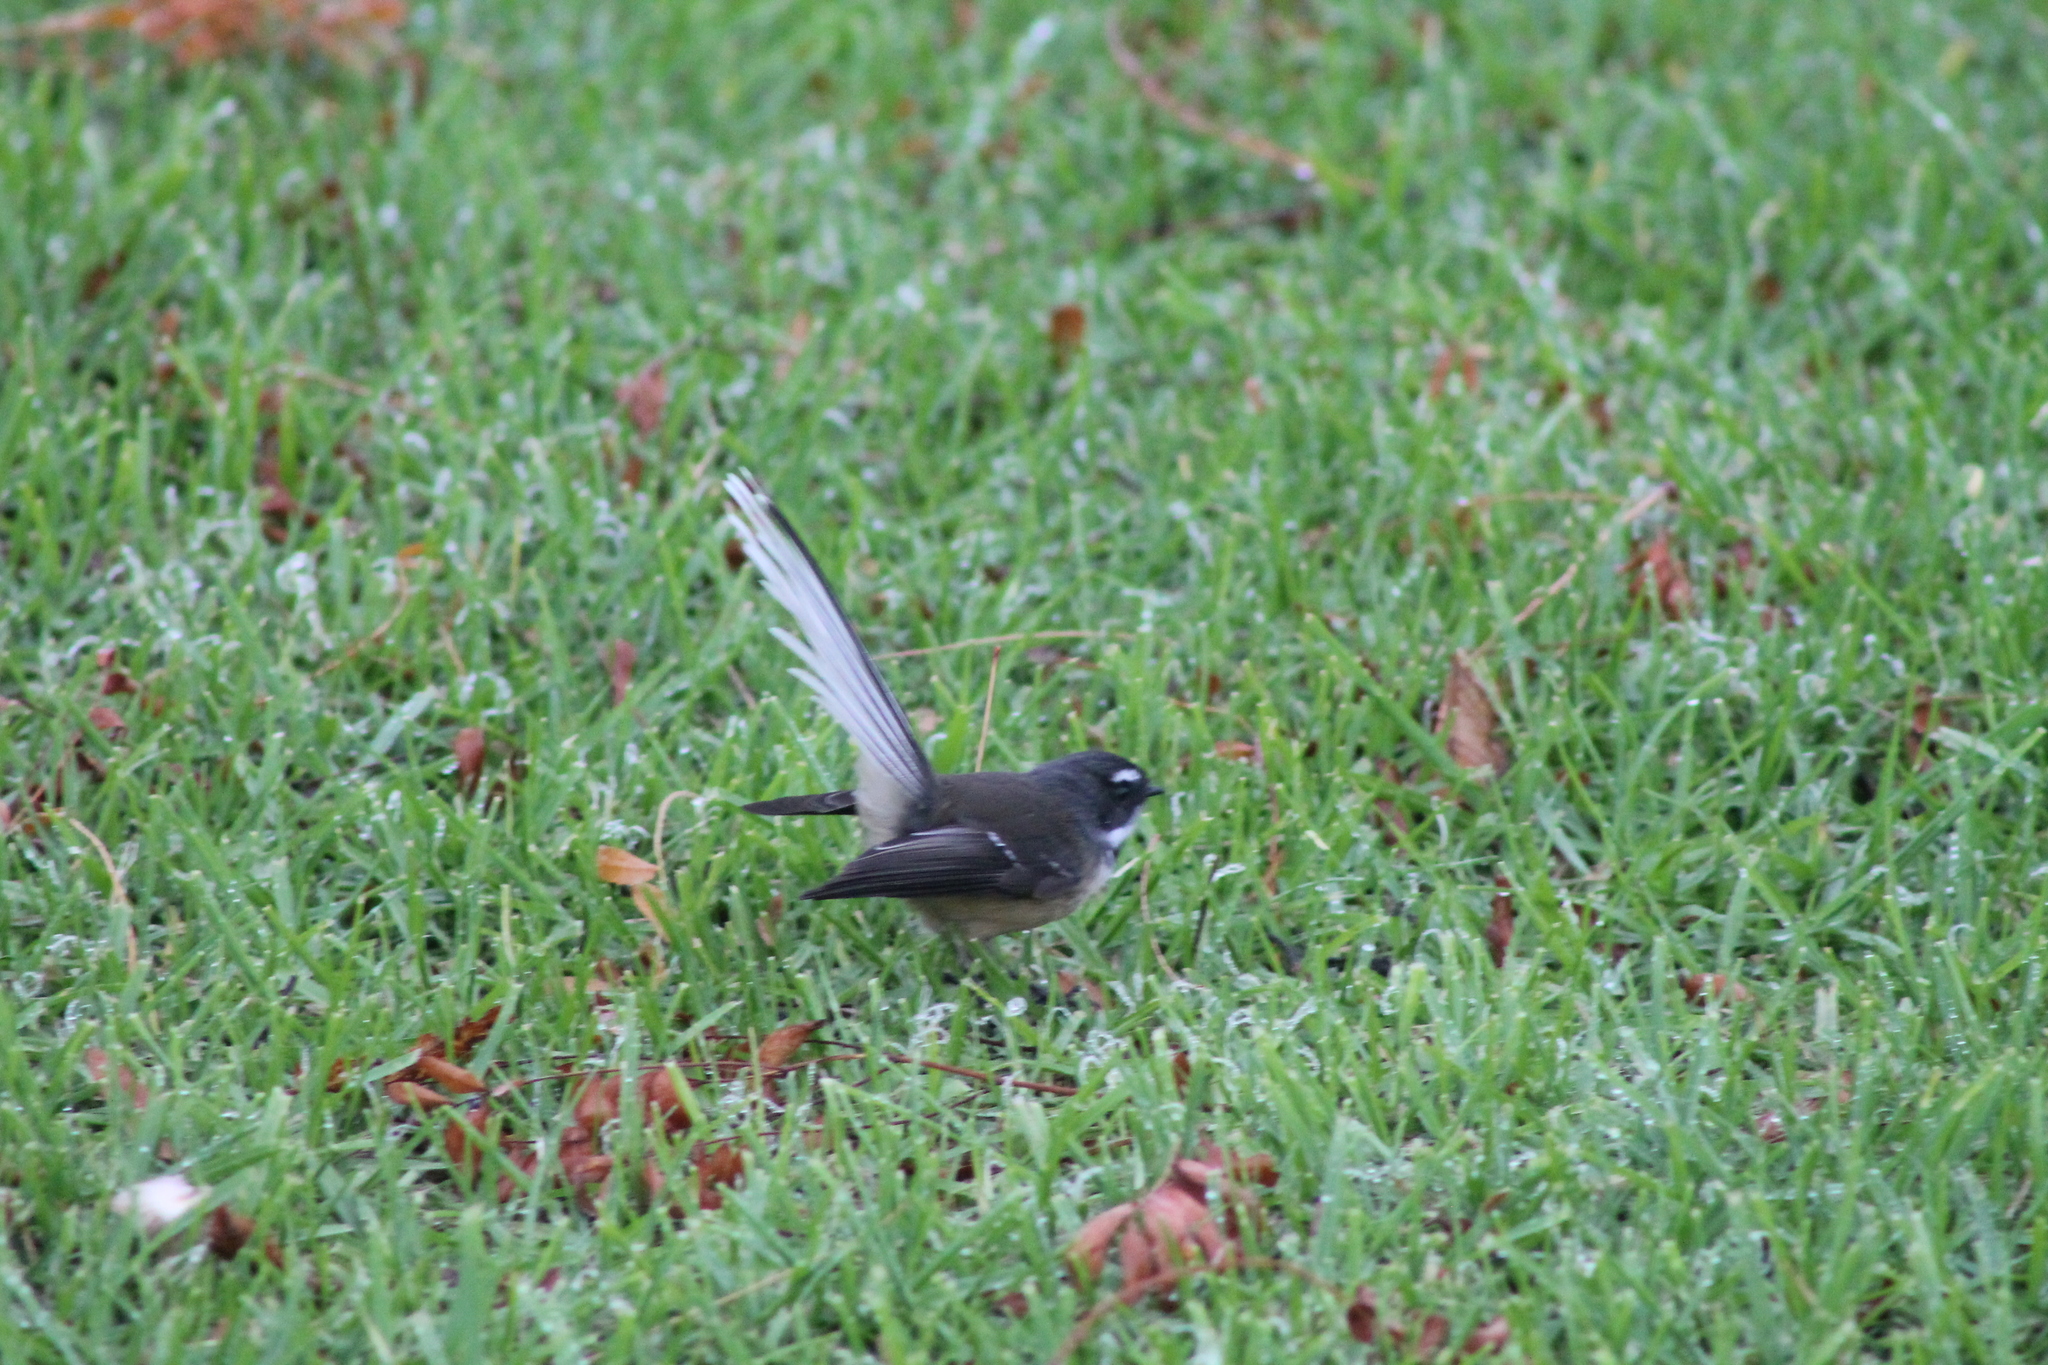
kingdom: Animalia
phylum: Chordata
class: Aves
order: Passeriformes
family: Rhipiduridae
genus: Rhipidura
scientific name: Rhipidura fuliginosa
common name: New zealand fantail
